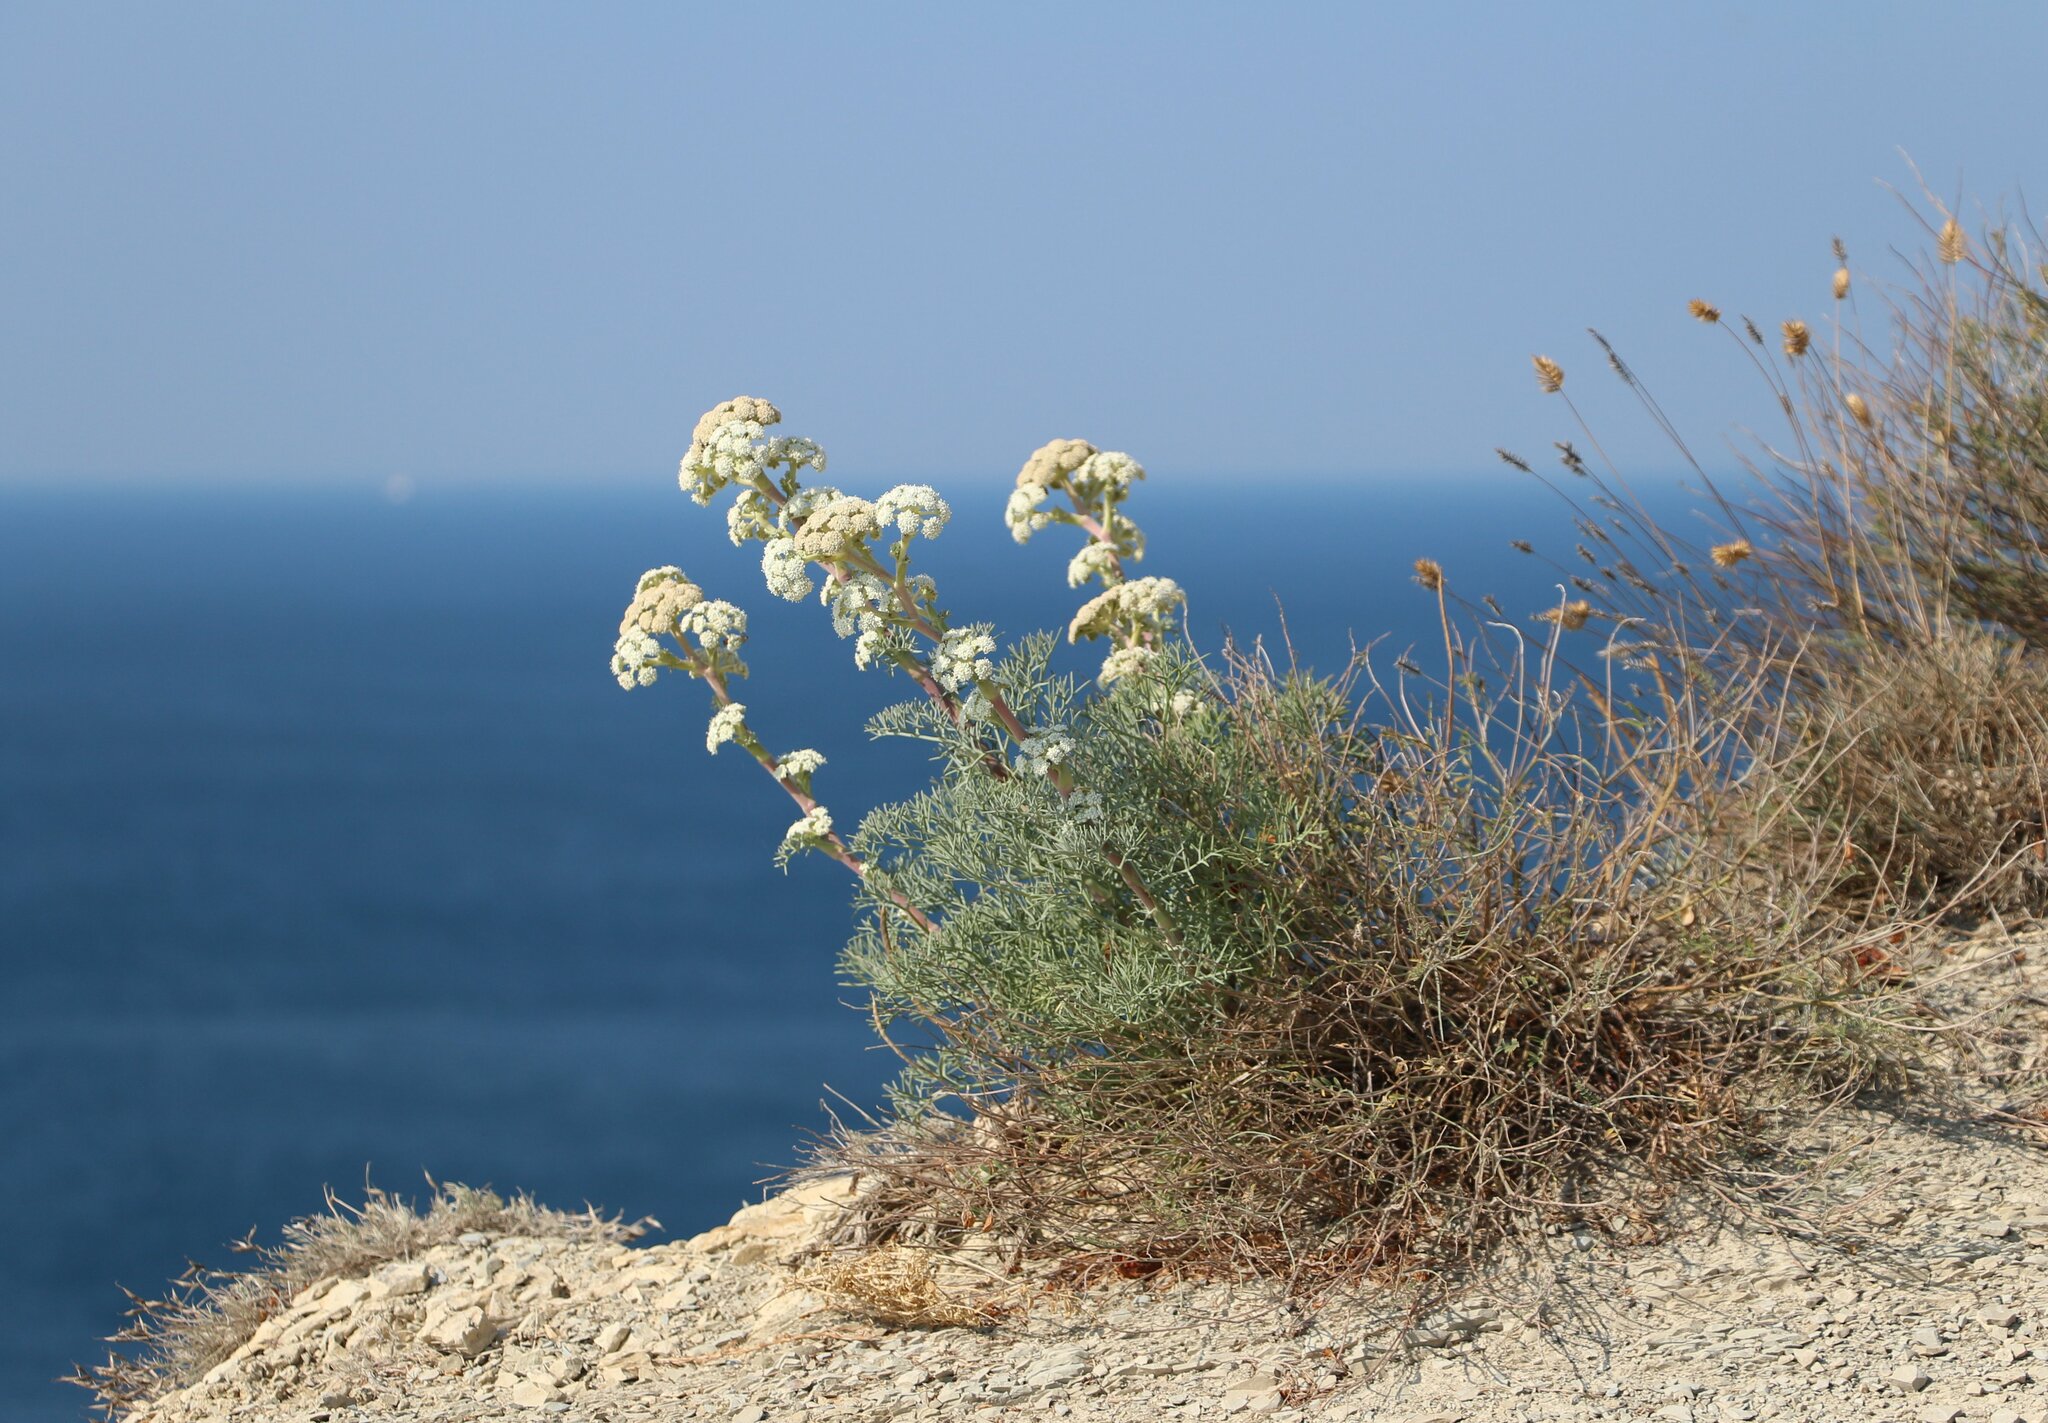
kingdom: Plantae
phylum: Tracheophyta
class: Magnoliopsida
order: Apiales
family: Apiaceae
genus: Seseli
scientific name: Seseli ponticum
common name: Pontic seseli
